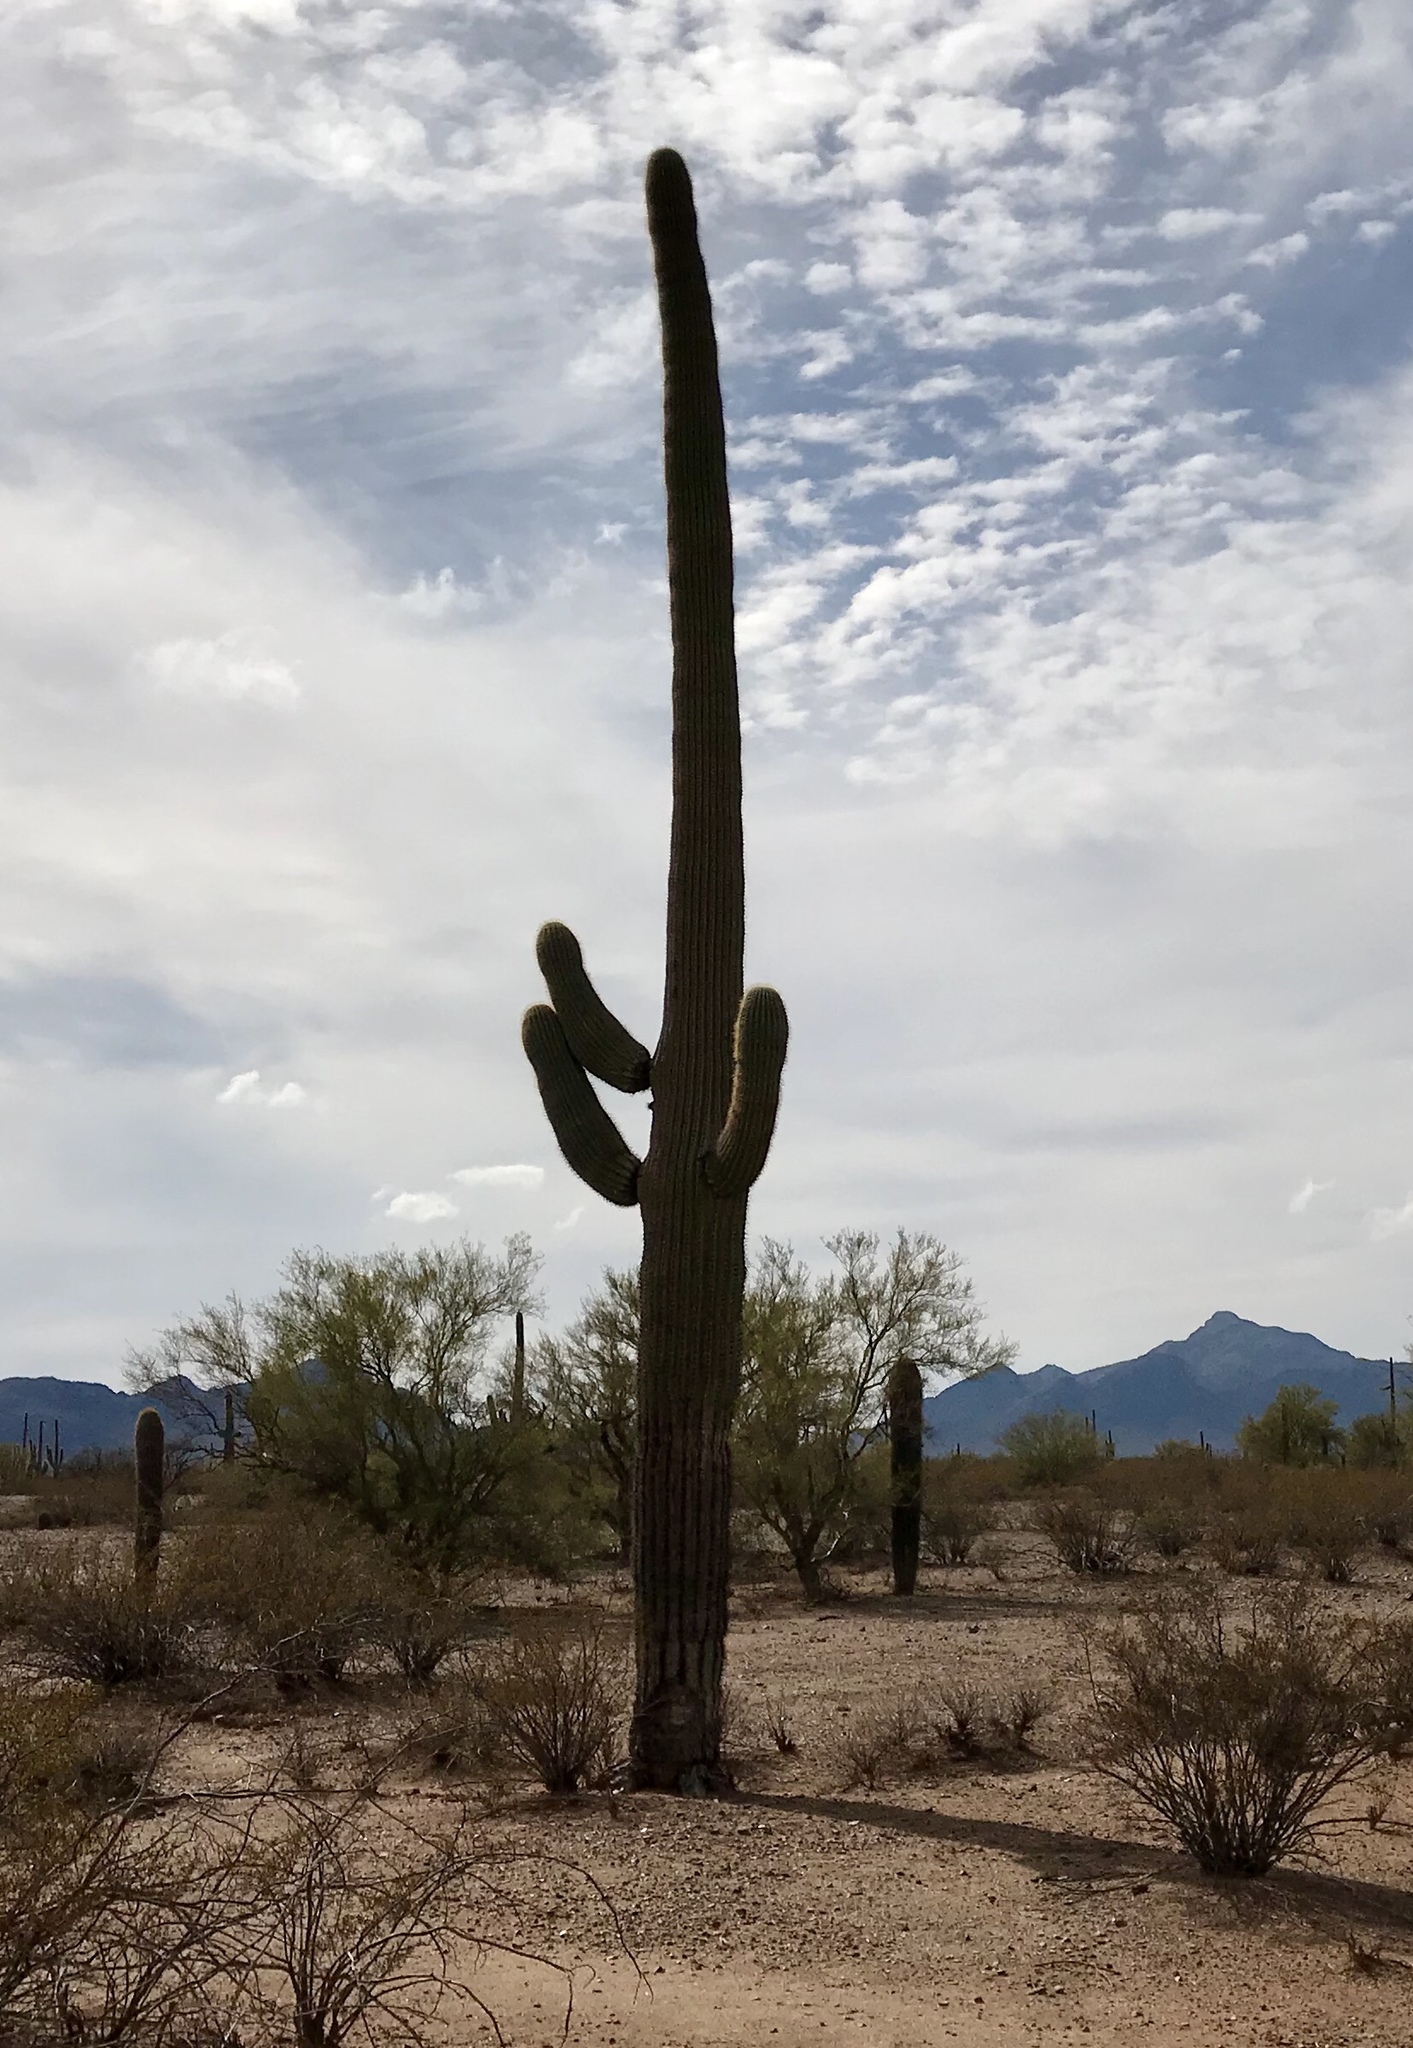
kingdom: Plantae
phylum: Tracheophyta
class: Magnoliopsida
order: Caryophyllales
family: Cactaceae
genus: Carnegiea
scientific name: Carnegiea gigantea
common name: Saguaro
